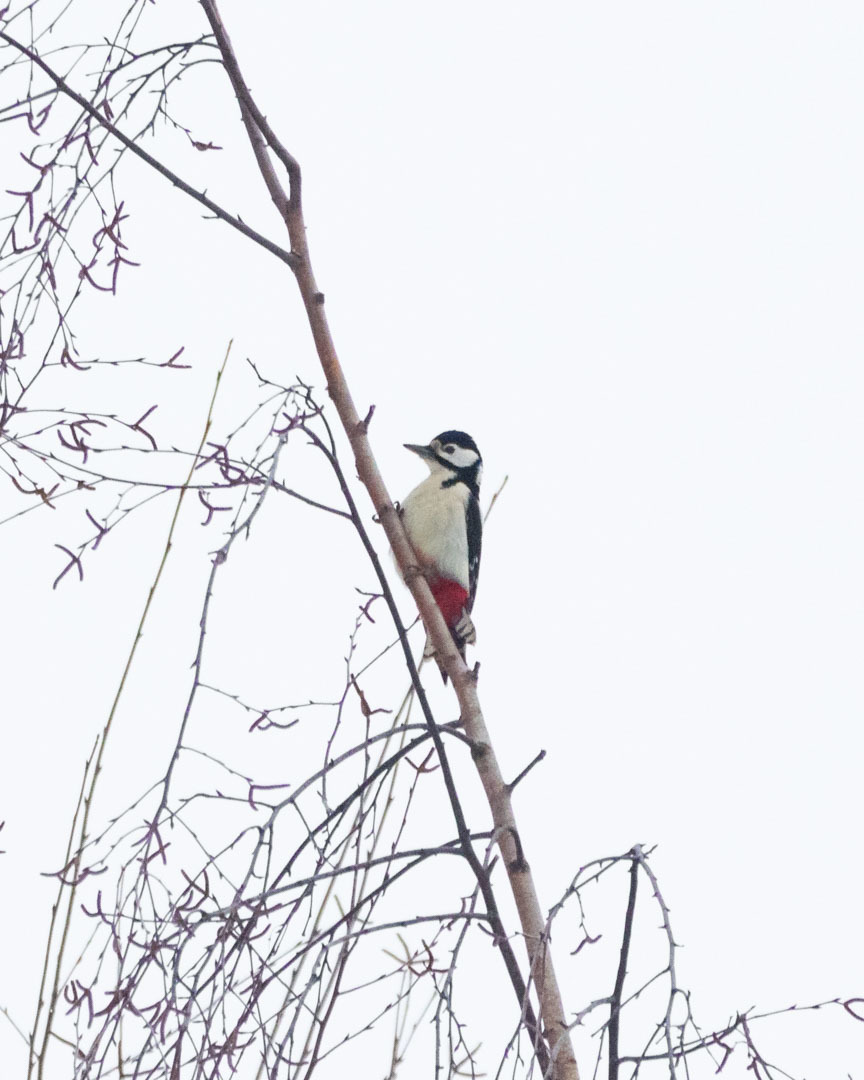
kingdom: Animalia
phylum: Chordata
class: Aves
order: Piciformes
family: Picidae
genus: Dendrocopos
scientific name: Dendrocopos major
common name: Great spotted woodpecker
